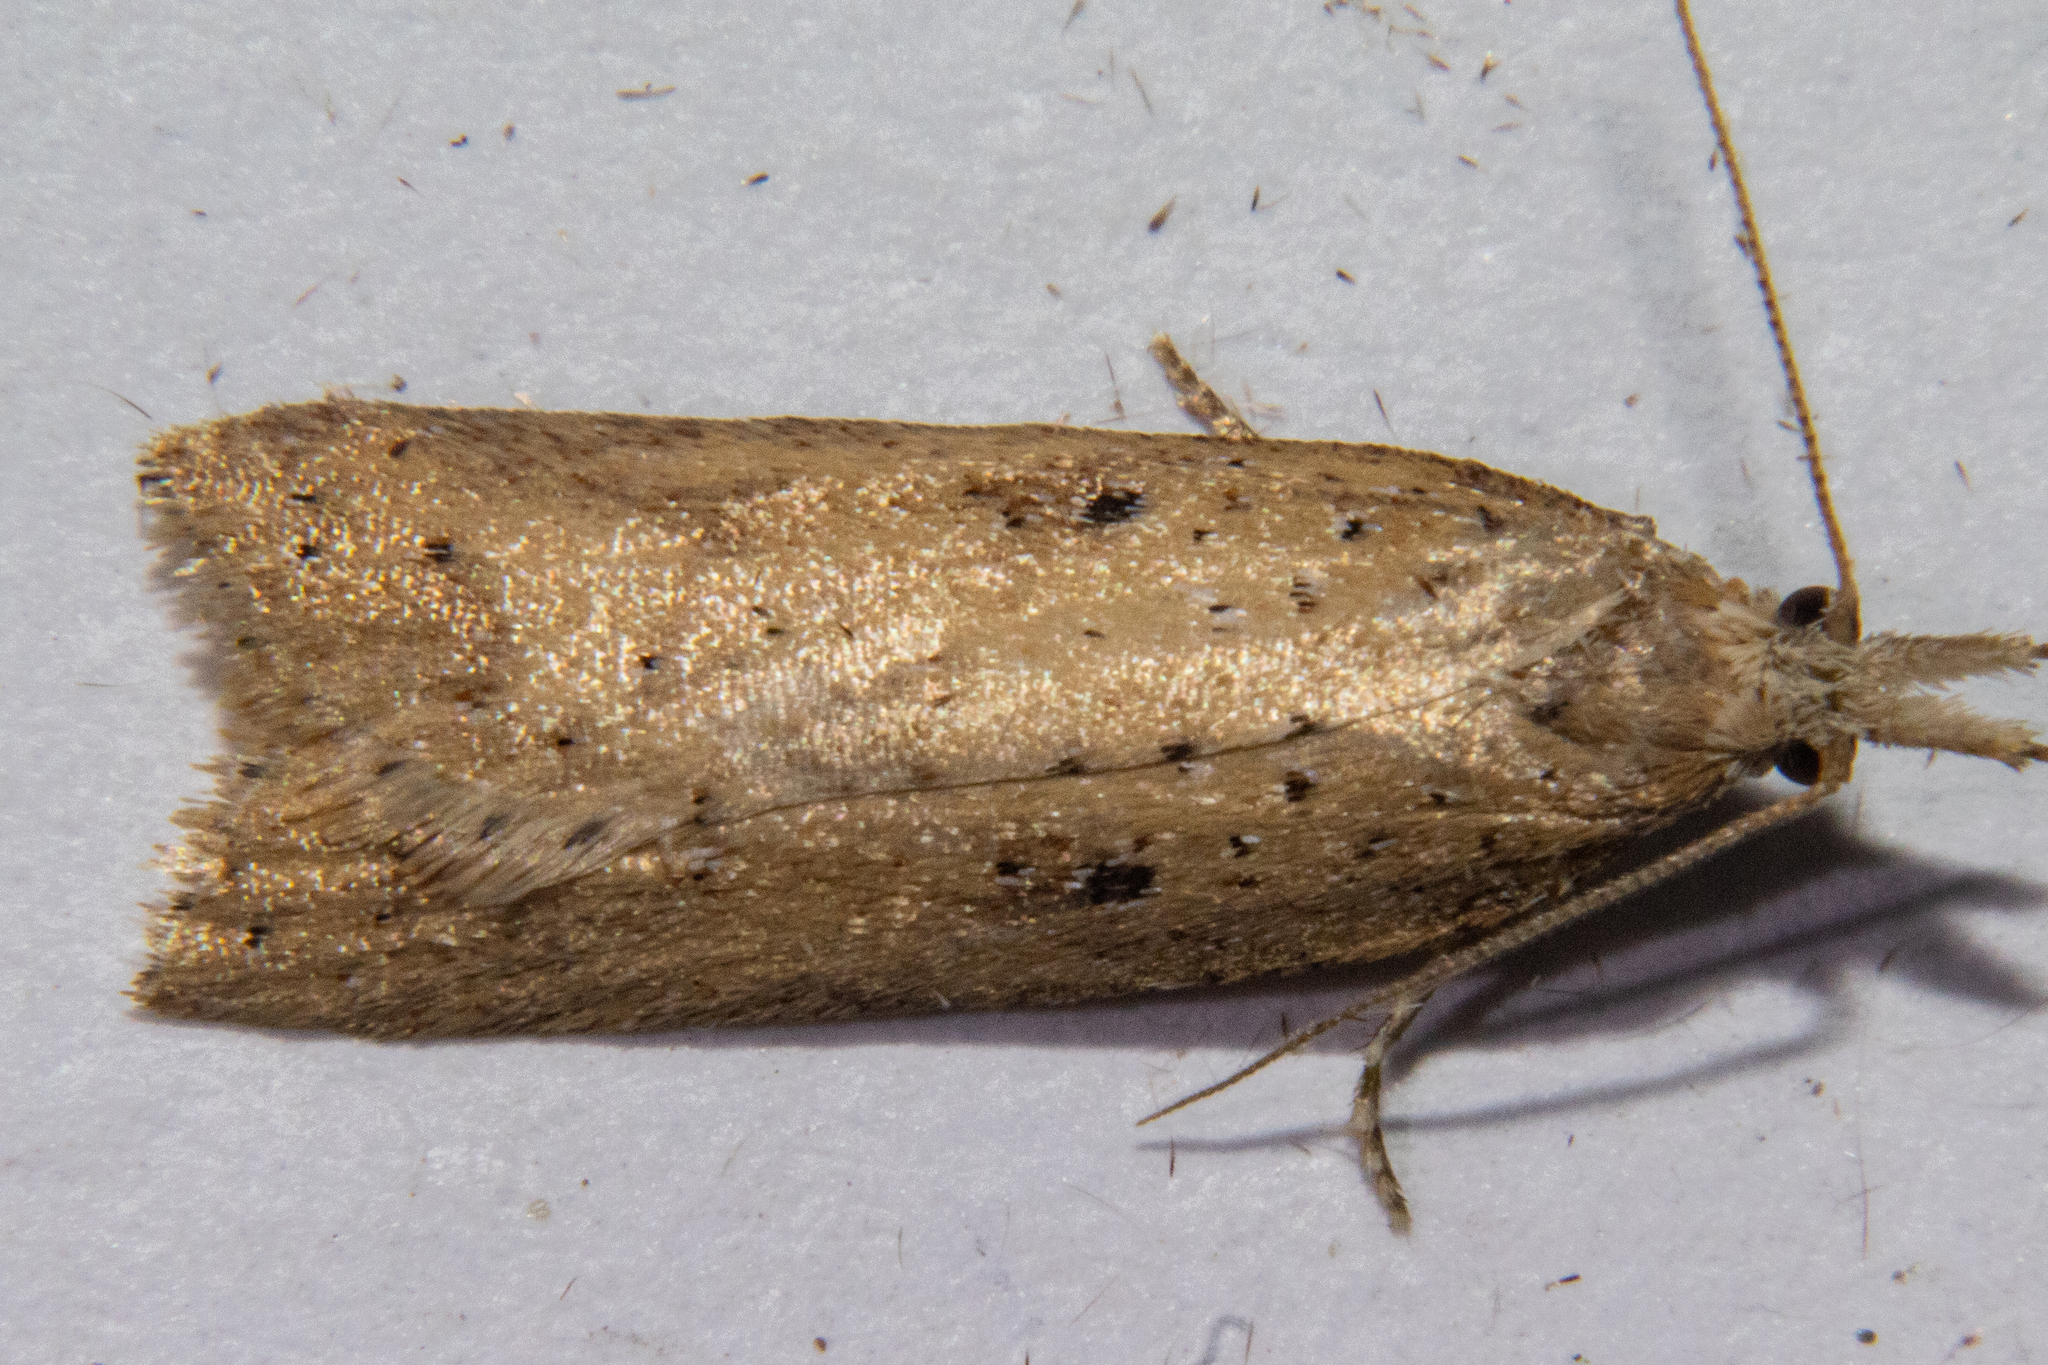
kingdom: Animalia
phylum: Arthropoda
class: Insecta
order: Lepidoptera
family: Tortricidae
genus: Apoctena
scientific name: Apoctena persecta
